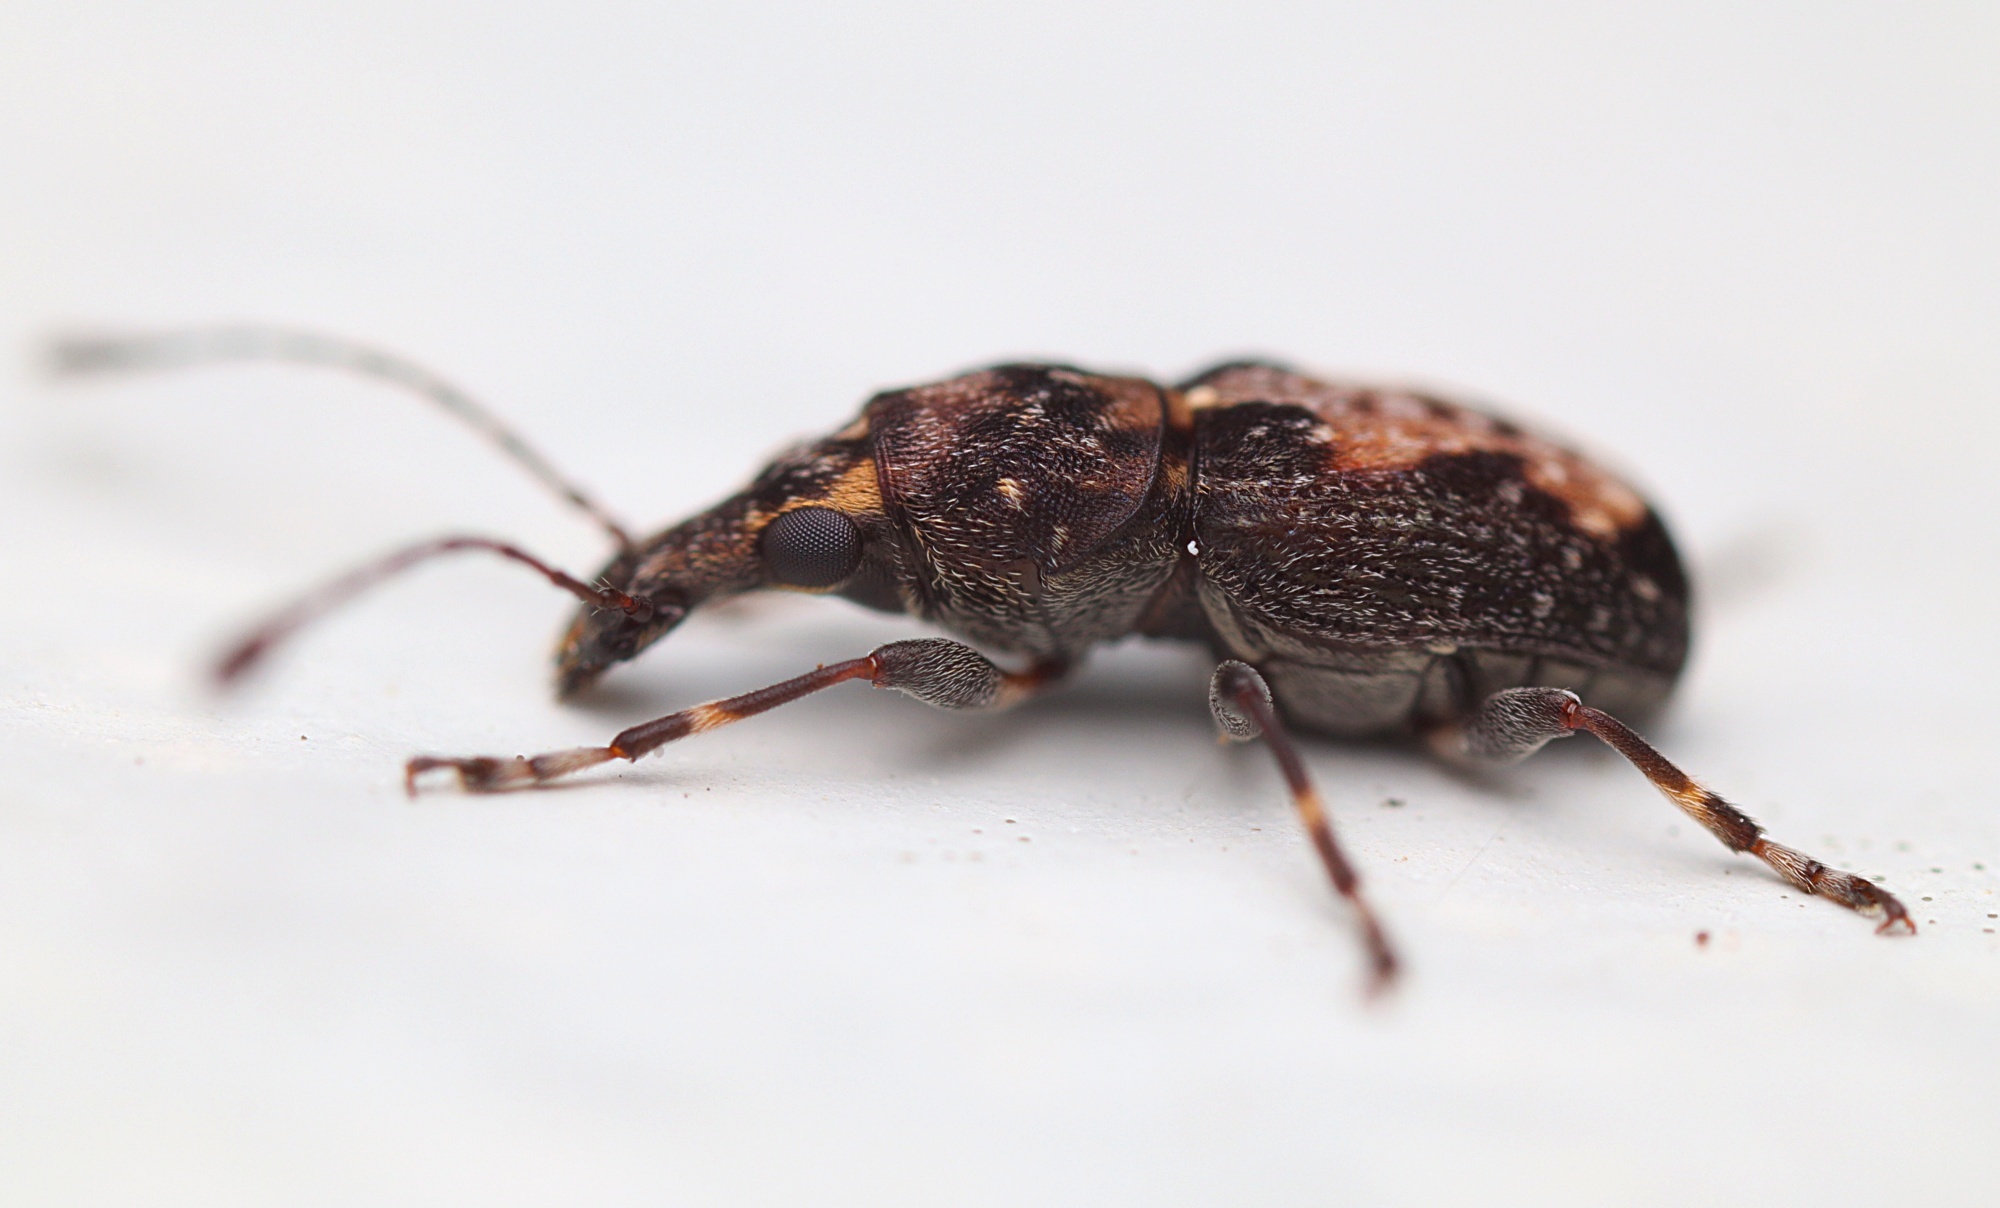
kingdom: Animalia
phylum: Arthropoda
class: Insecta
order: Coleoptera
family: Anthribidae
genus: Sharpius
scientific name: Sharpius
